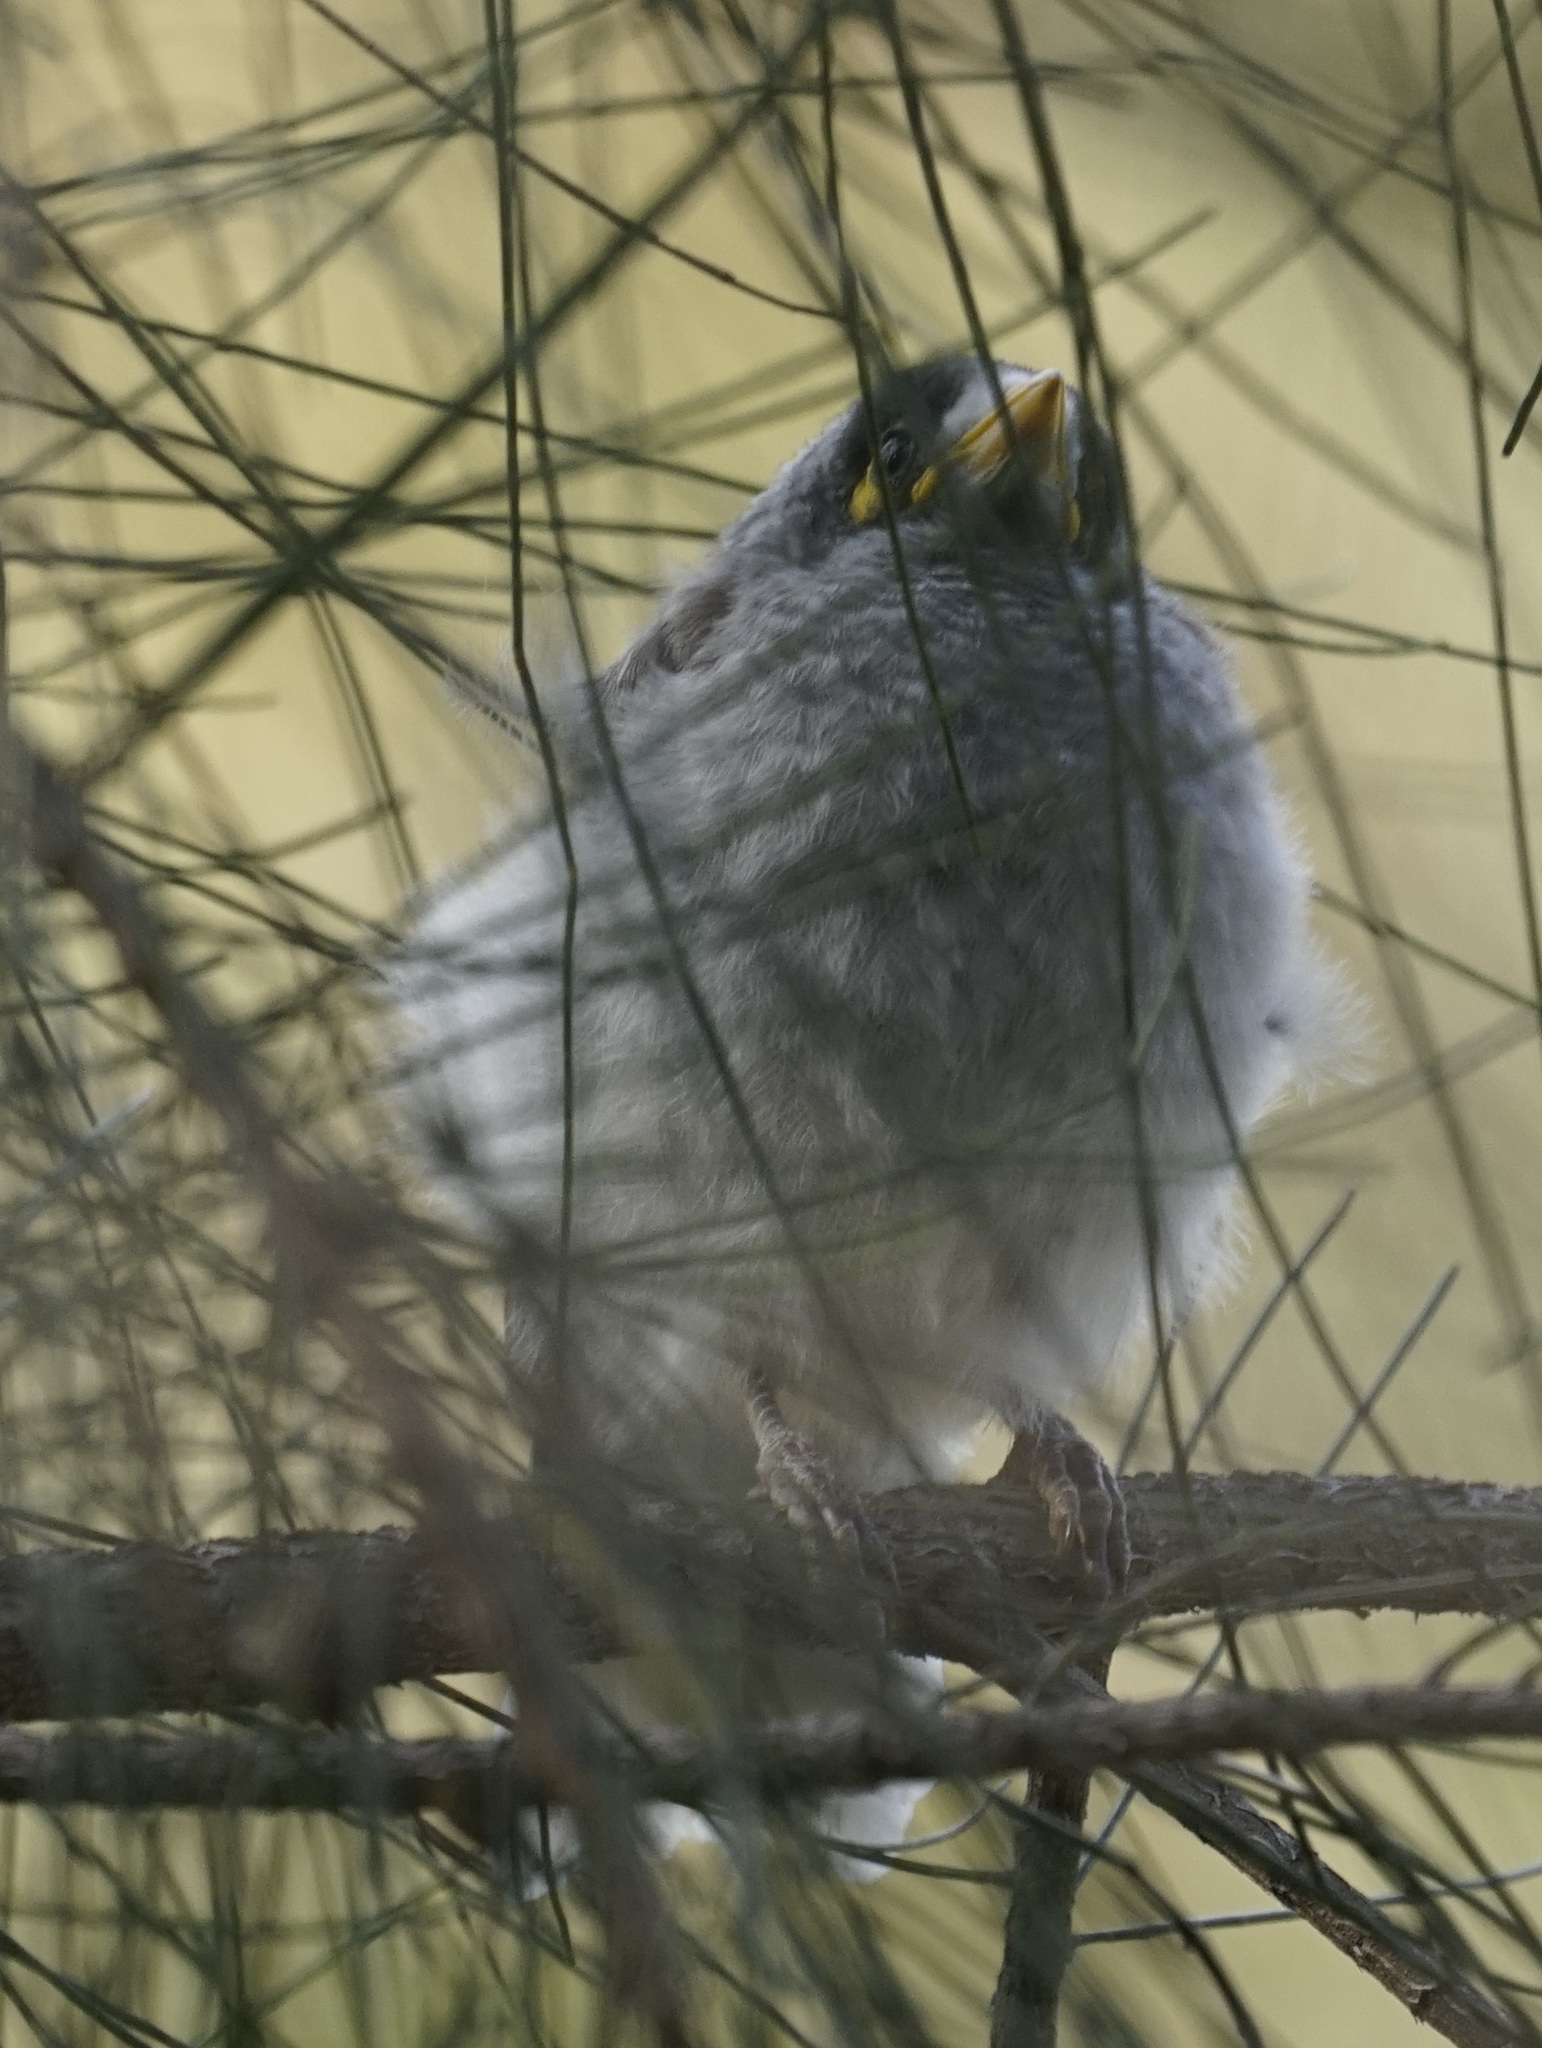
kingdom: Animalia
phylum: Chordata
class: Aves
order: Passeriformes
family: Meliphagidae
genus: Manorina
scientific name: Manorina melanocephala
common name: Noisy miner
